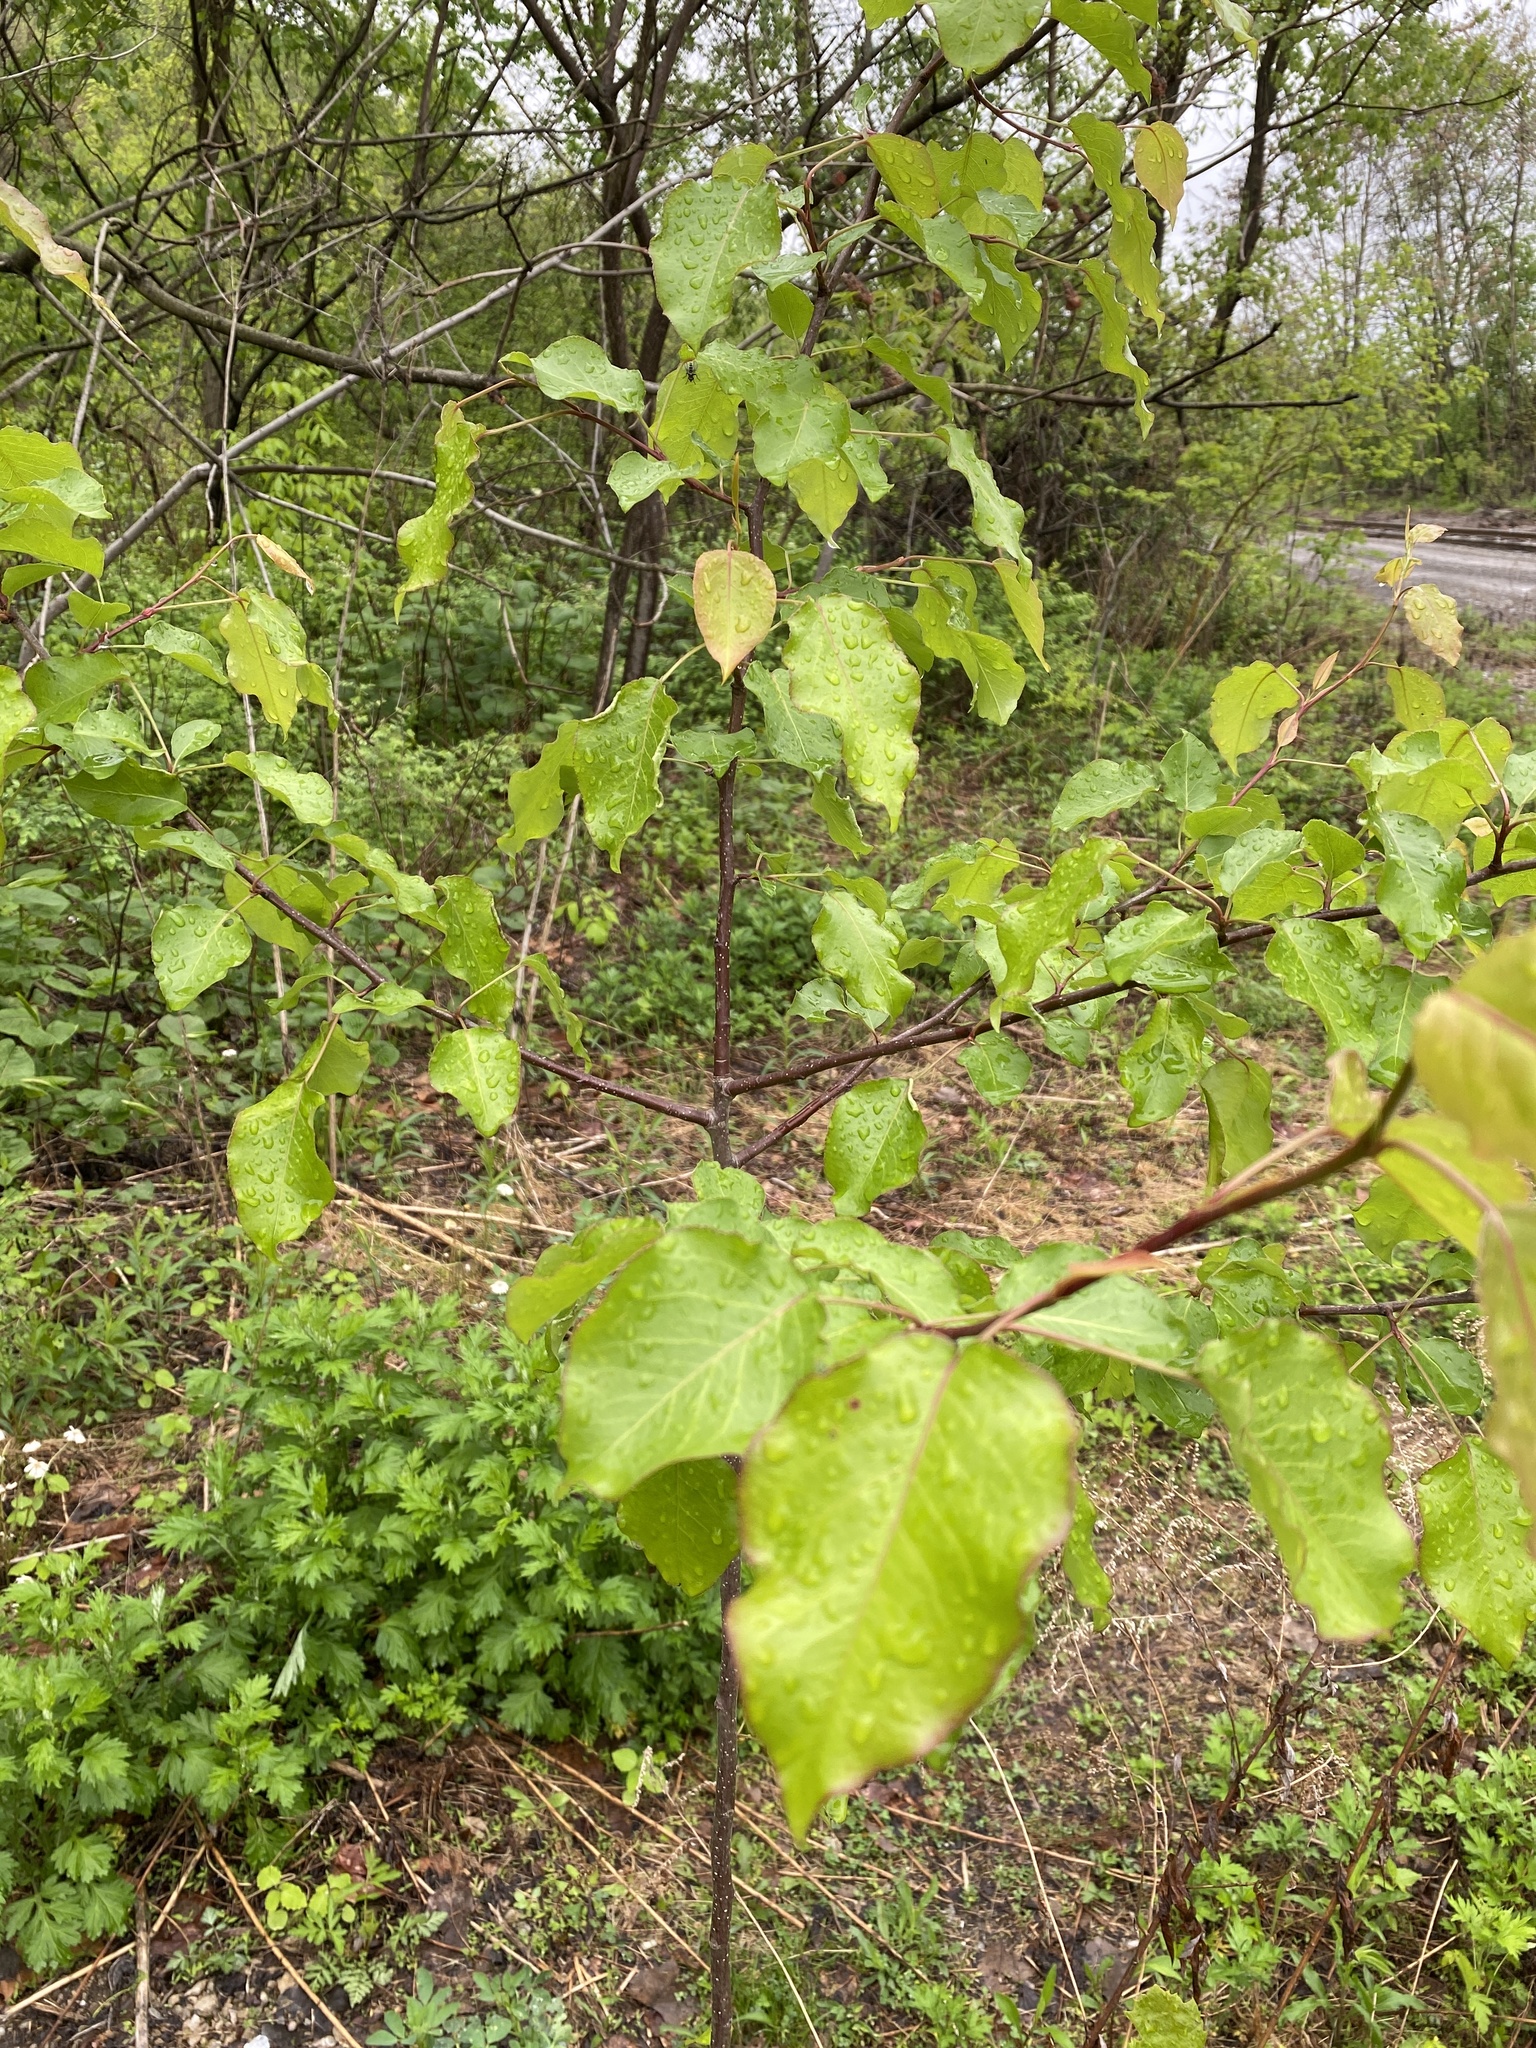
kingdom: Plantae
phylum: Tracheophyta
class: Magnoliopsida
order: Rosales
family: Rosaceae
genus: Pyrus
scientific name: Pyrus calleryana
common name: Callery pear
